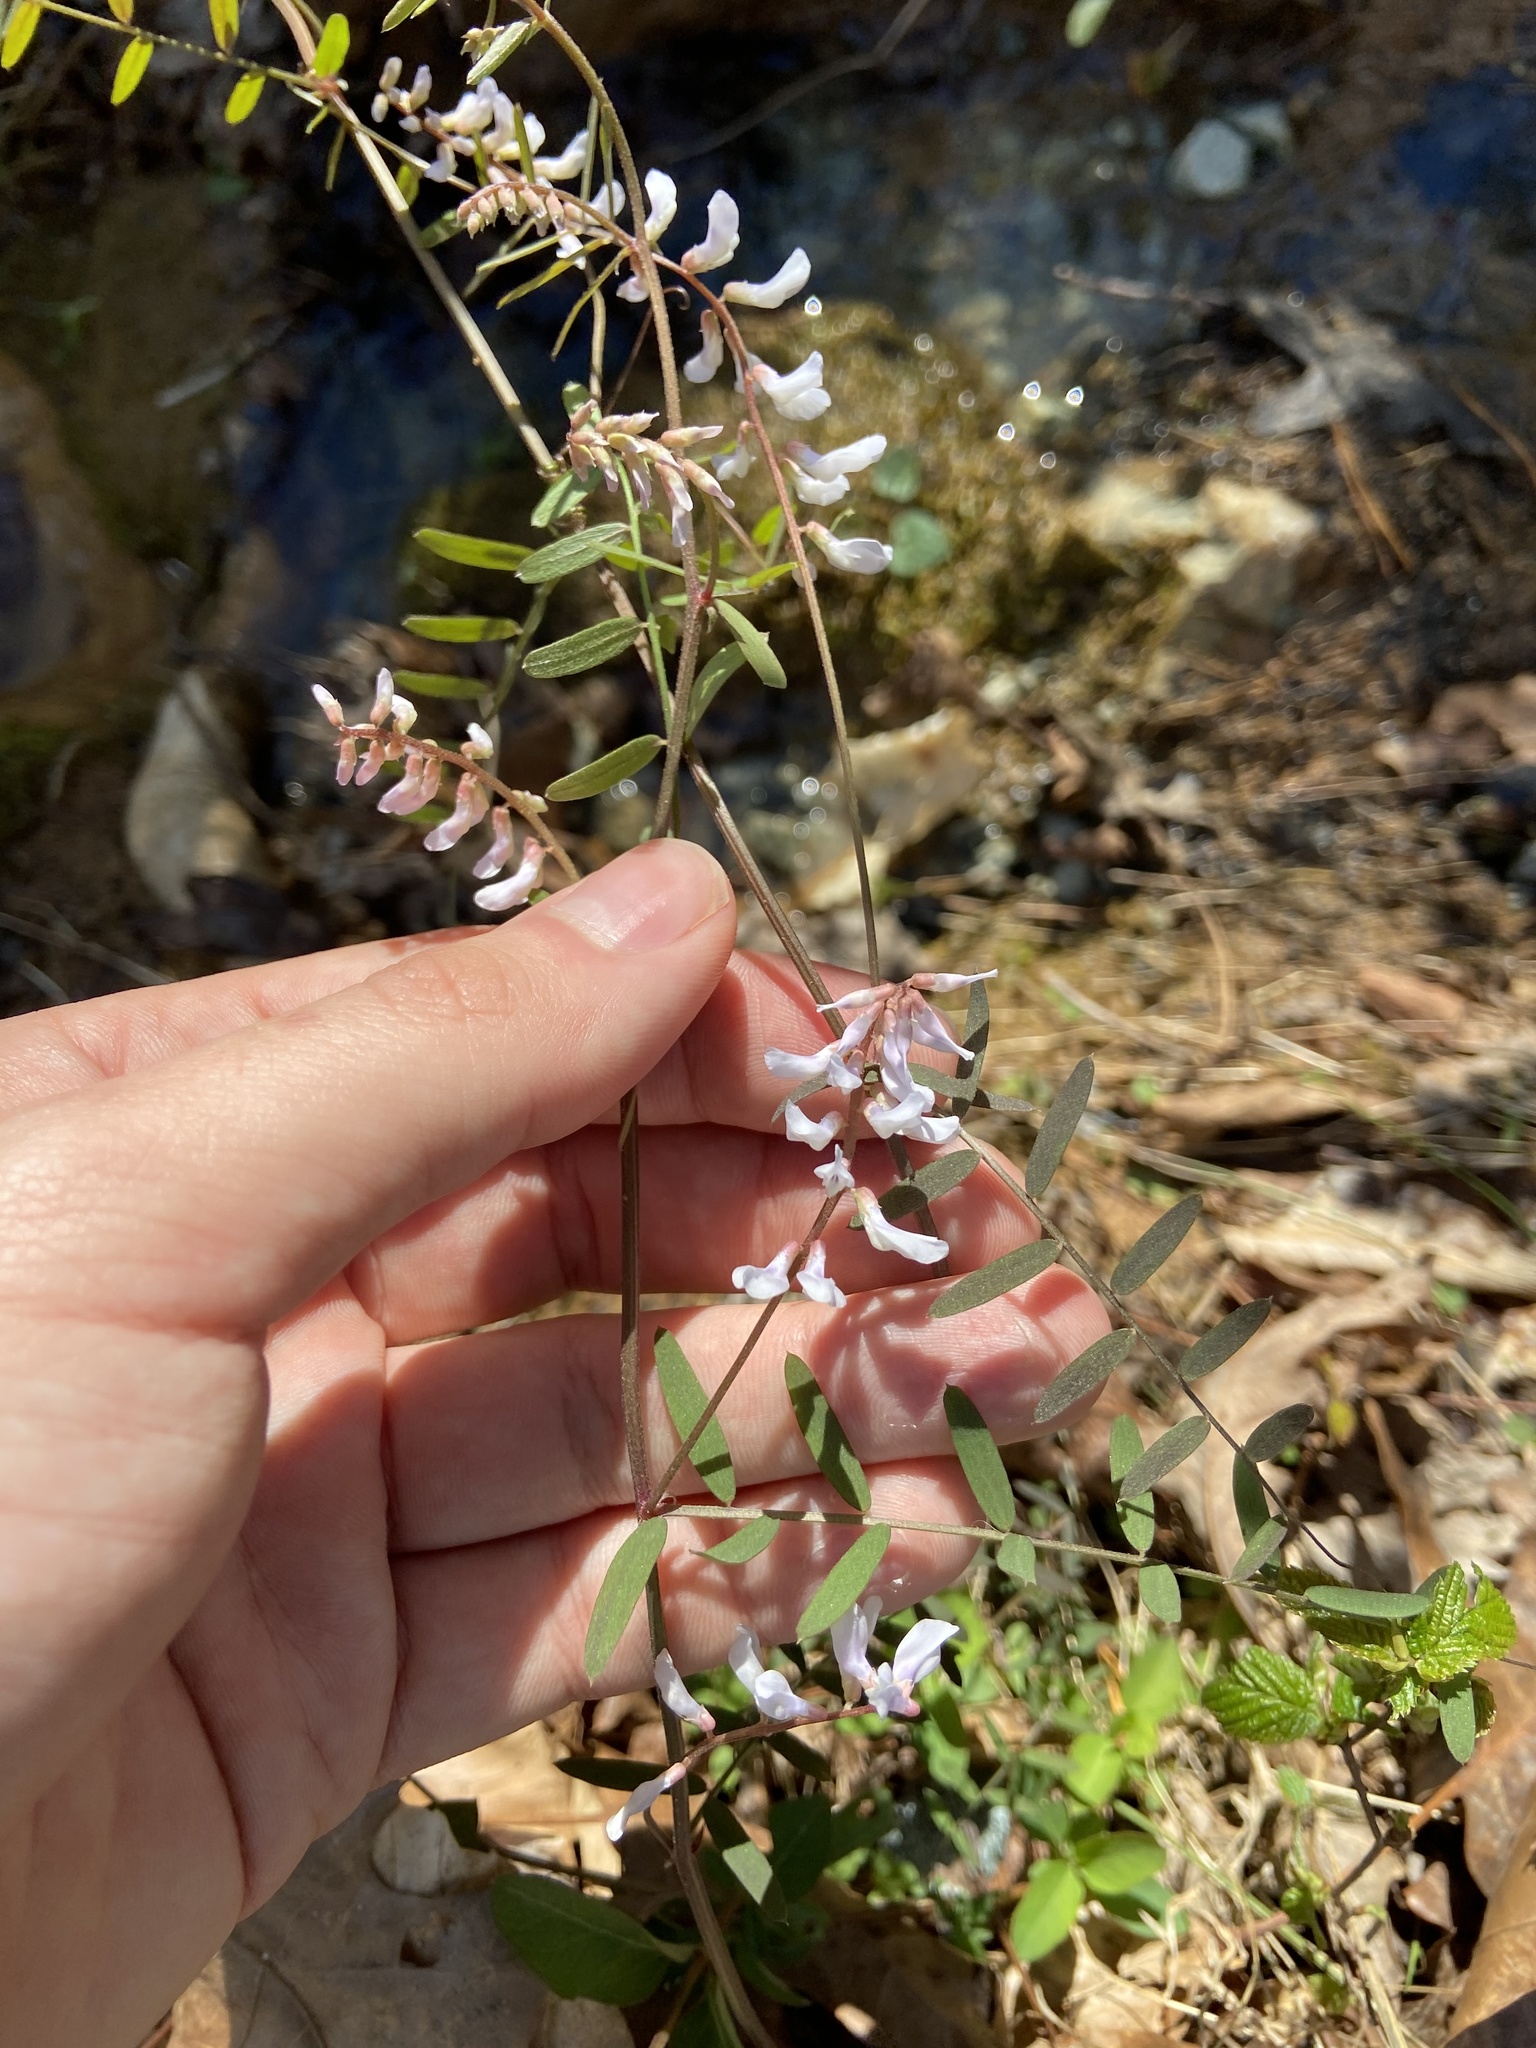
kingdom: Plantae
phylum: Tracheophyta
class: Magnoliopsida
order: Fabales
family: Fabaceae
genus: Vicia
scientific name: Vicia caroliniana
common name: Carolina vetch
